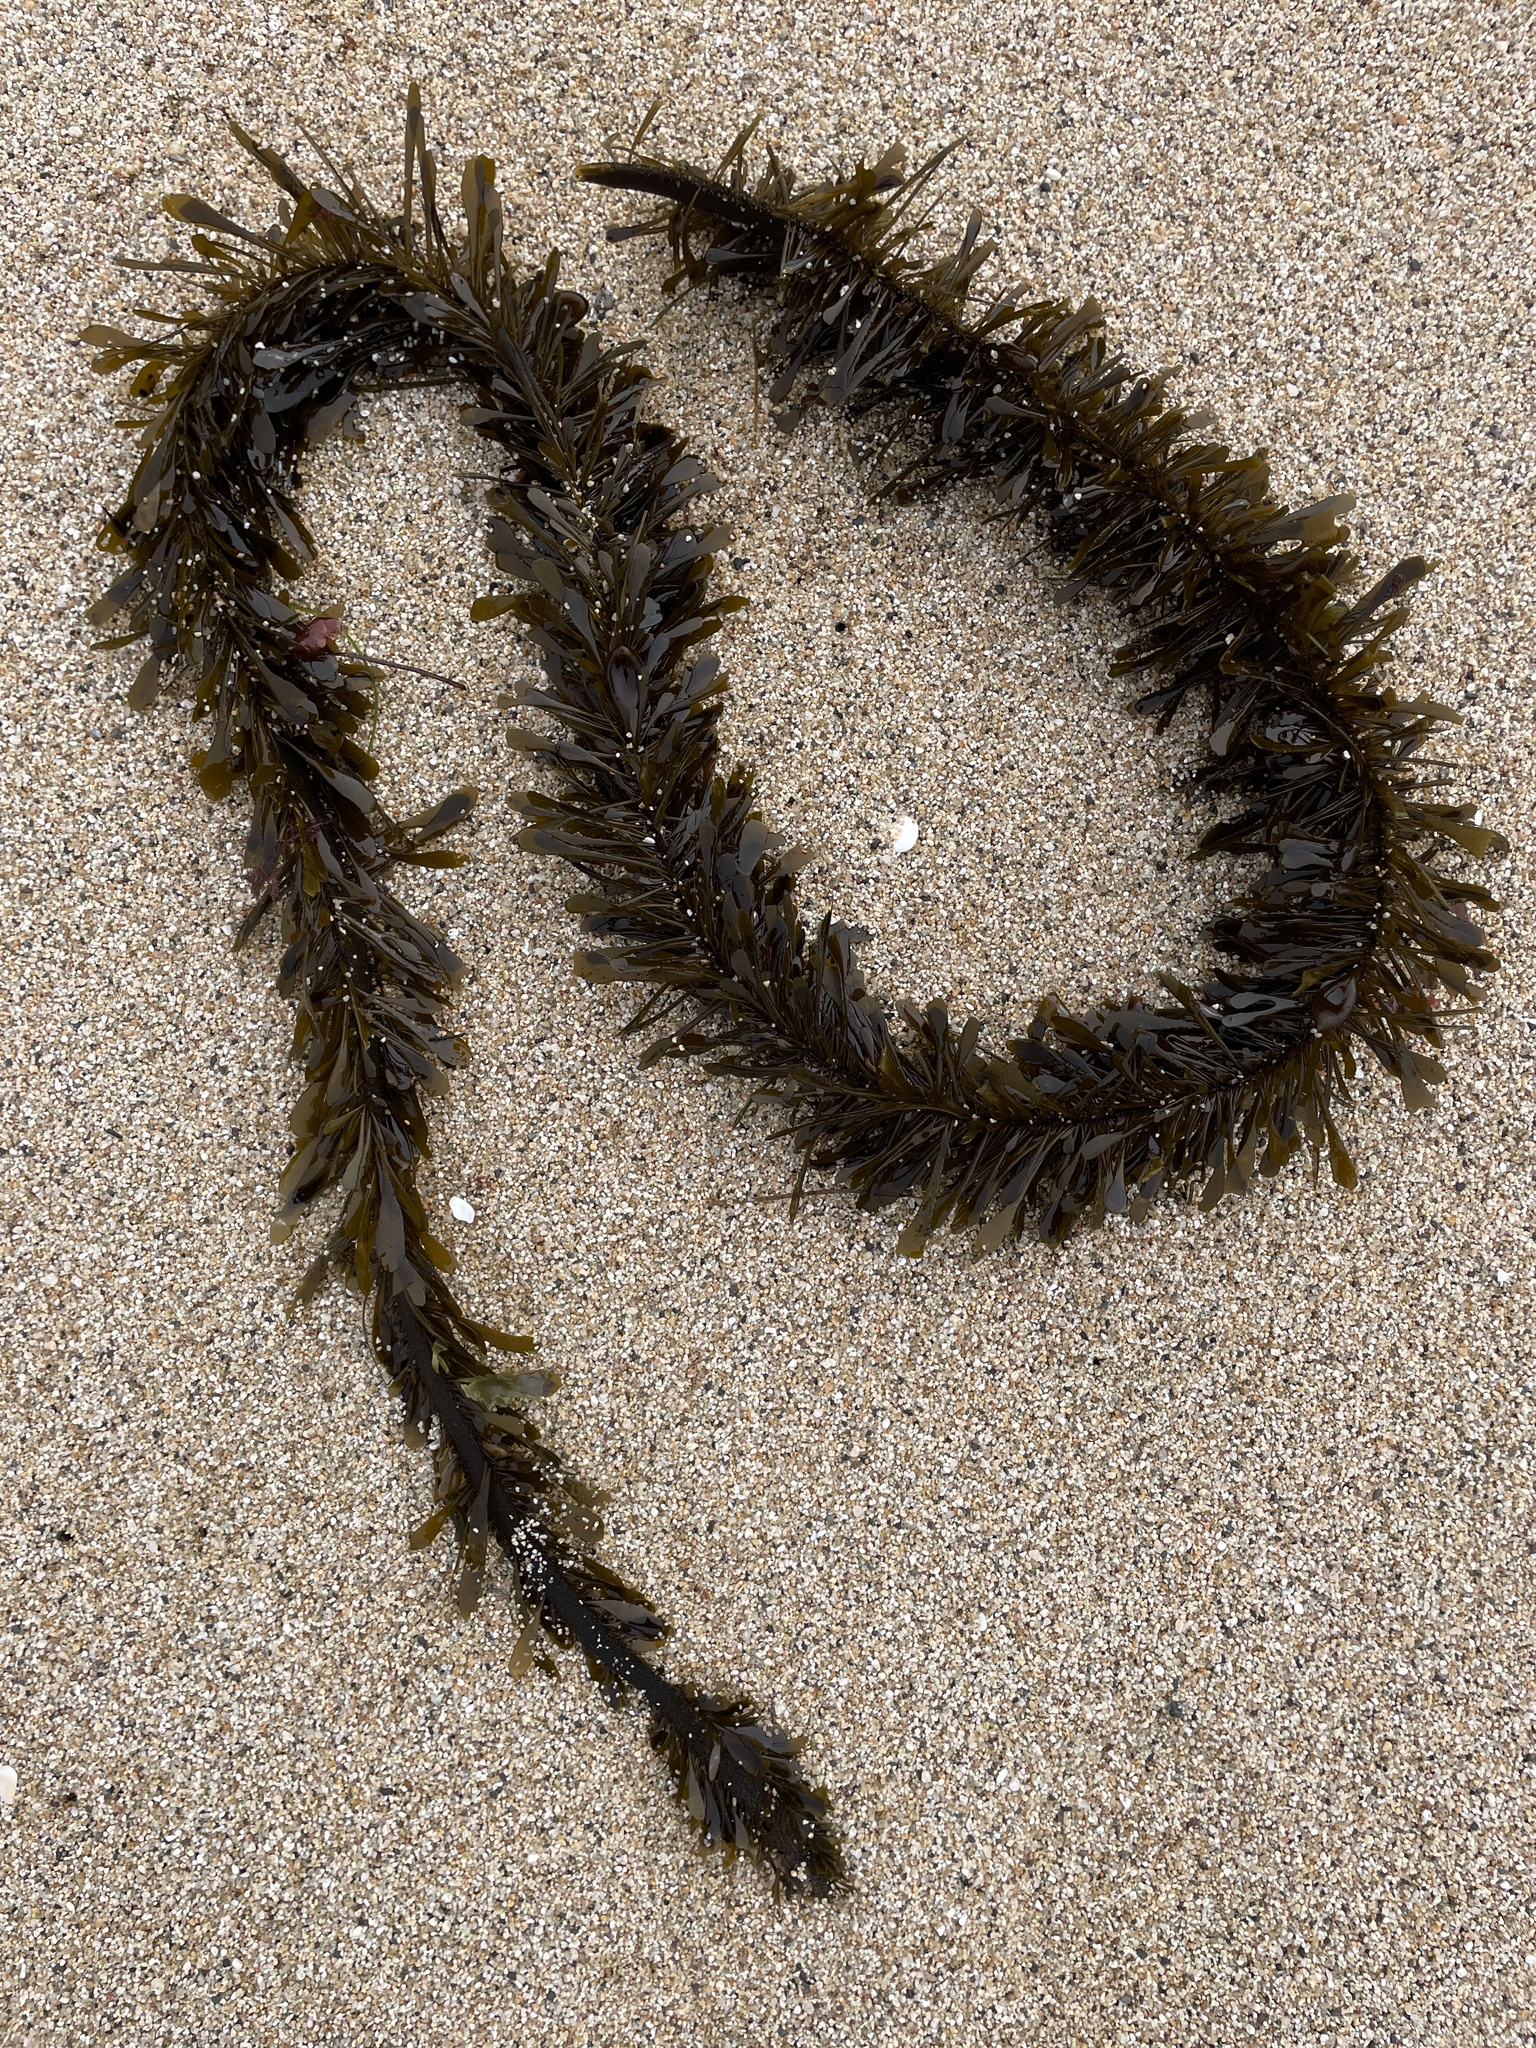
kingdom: Chromista
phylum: Ochrophyta
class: Phaeophyceae
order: Laminariales
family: Lessoniaceae
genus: Egregia
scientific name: Egregia menziesii
